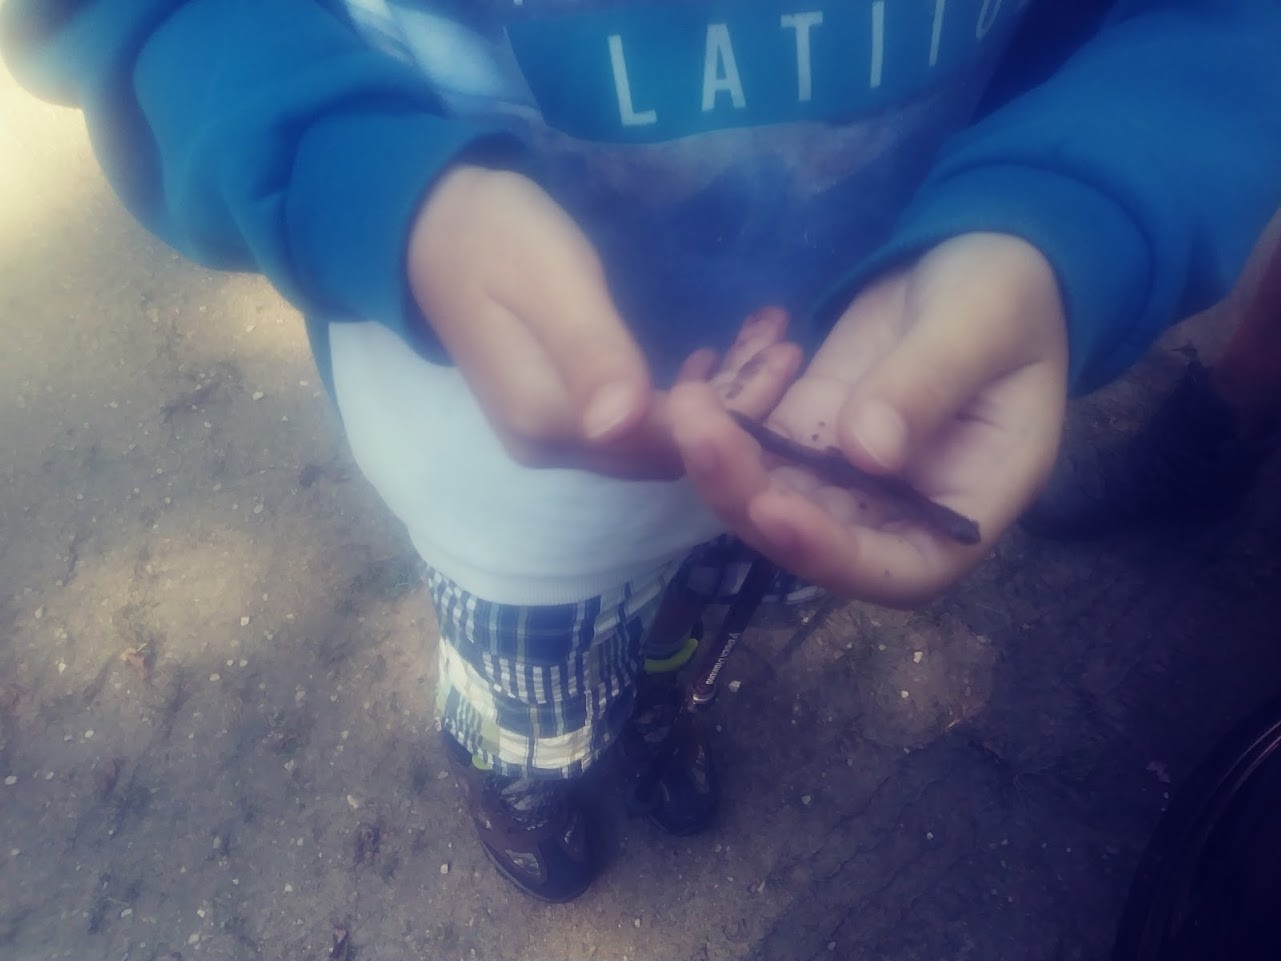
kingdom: Animalia
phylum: Chordata
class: Amphibia
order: Caudata
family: Plethodontidae
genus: Plethodon
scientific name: Plethodon cinereus
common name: Redback salamander
